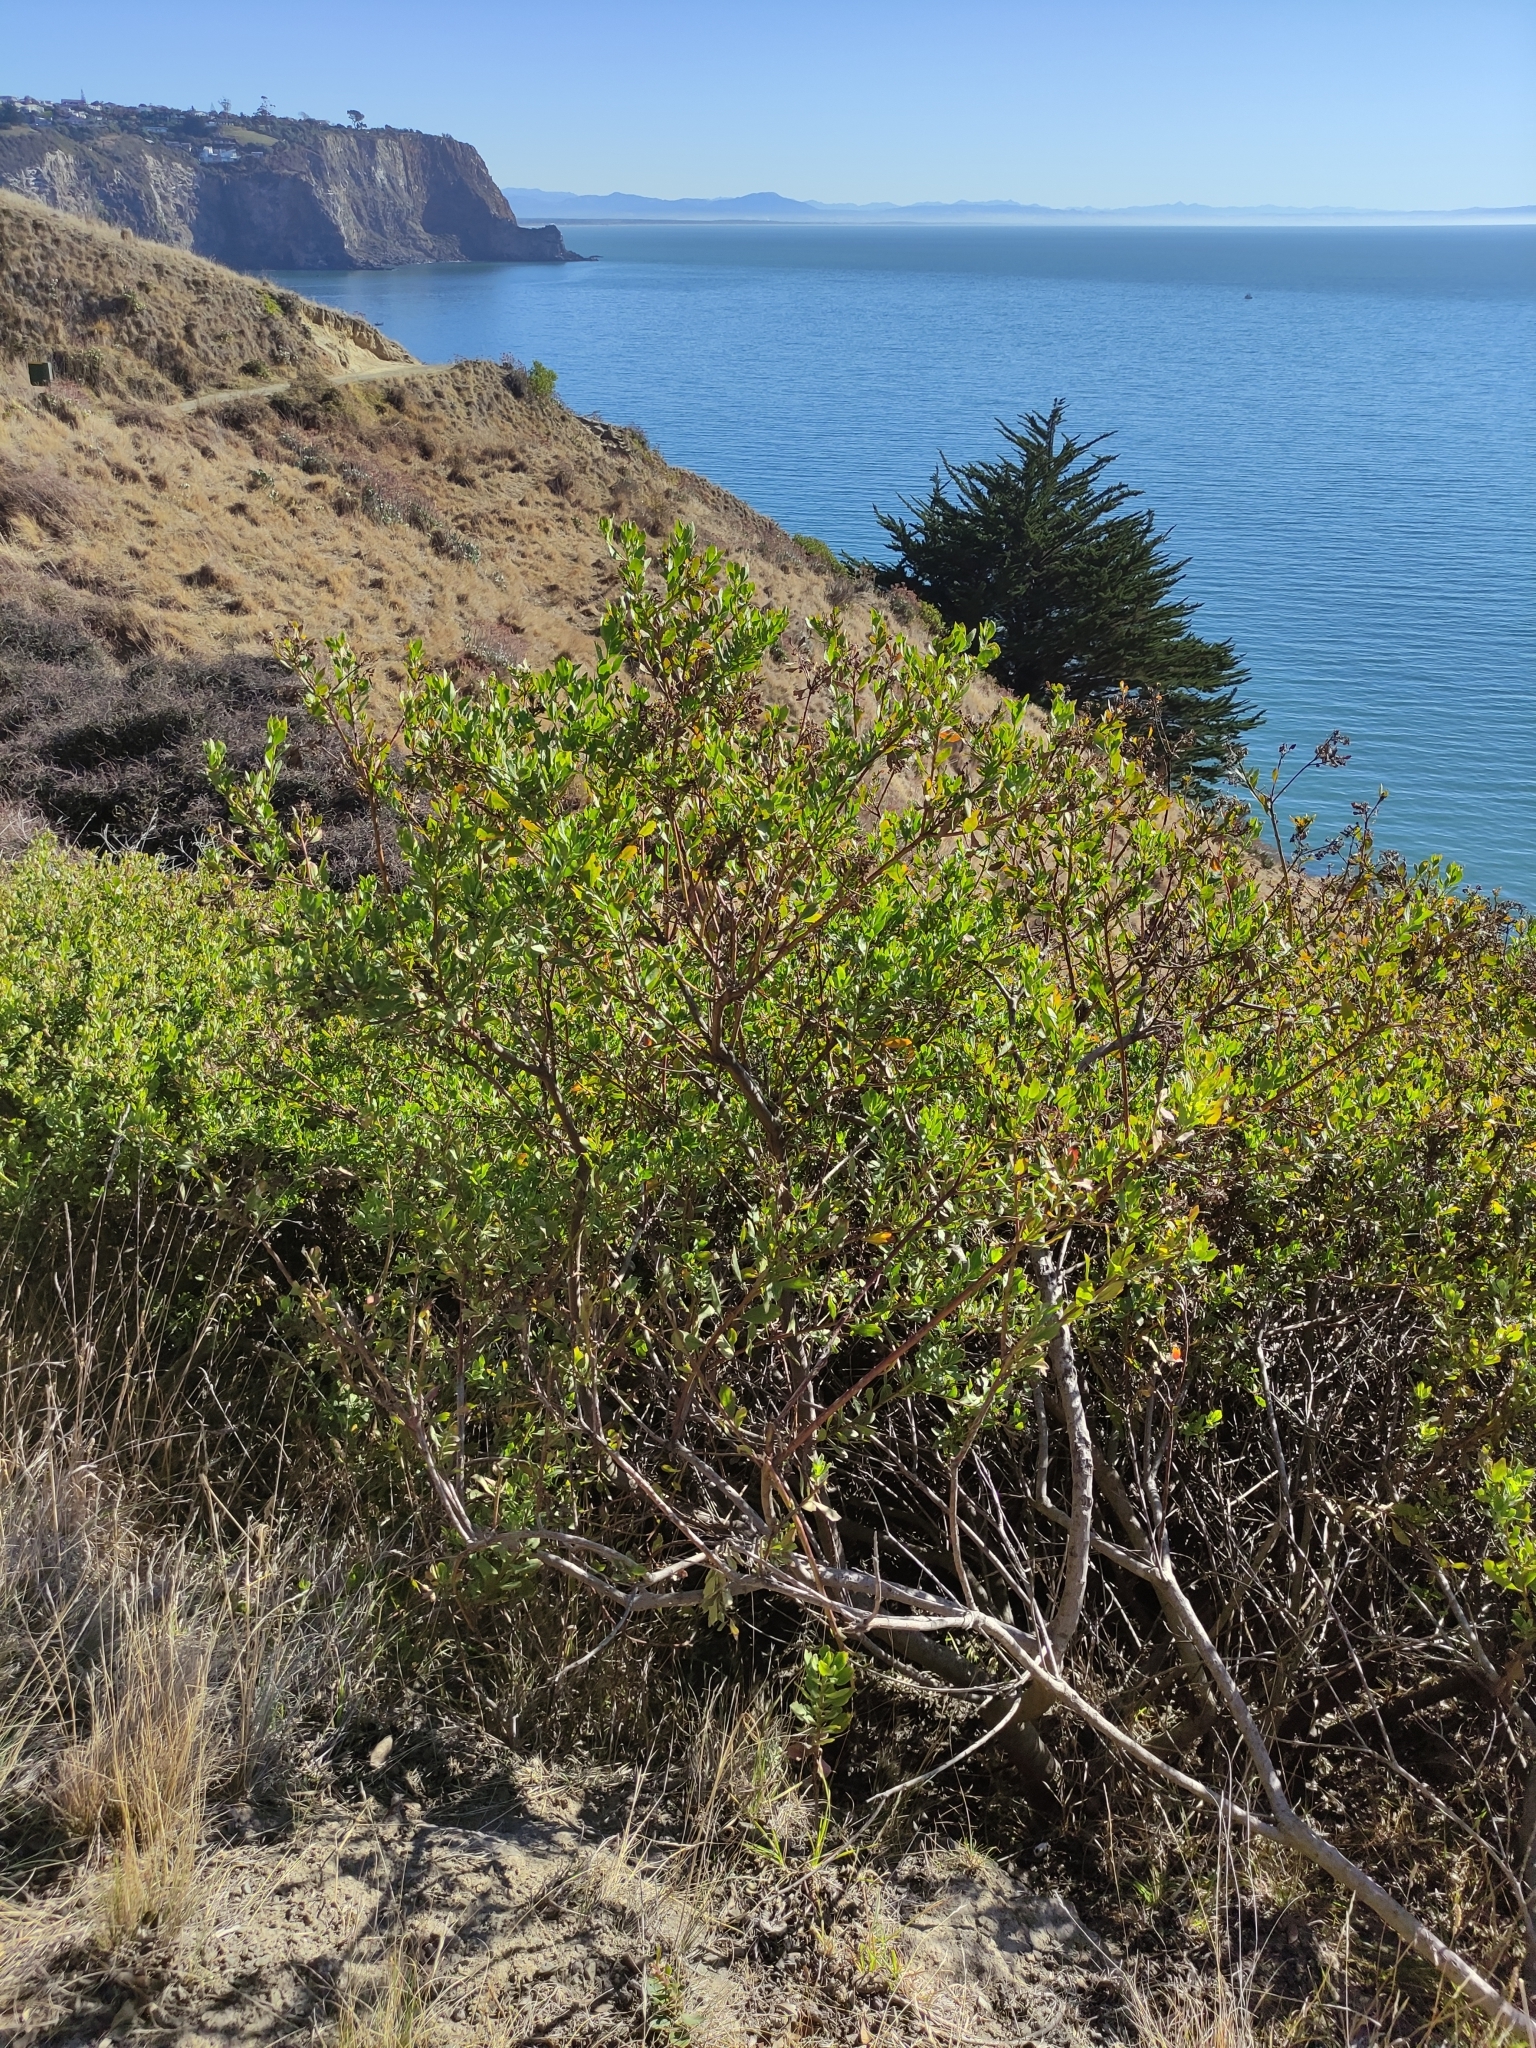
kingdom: Plantae
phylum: Tracheophyta
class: Magnoliopsida
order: Asterales
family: Asteraceae
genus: Osteospermum
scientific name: Osteospermum moniliferum
